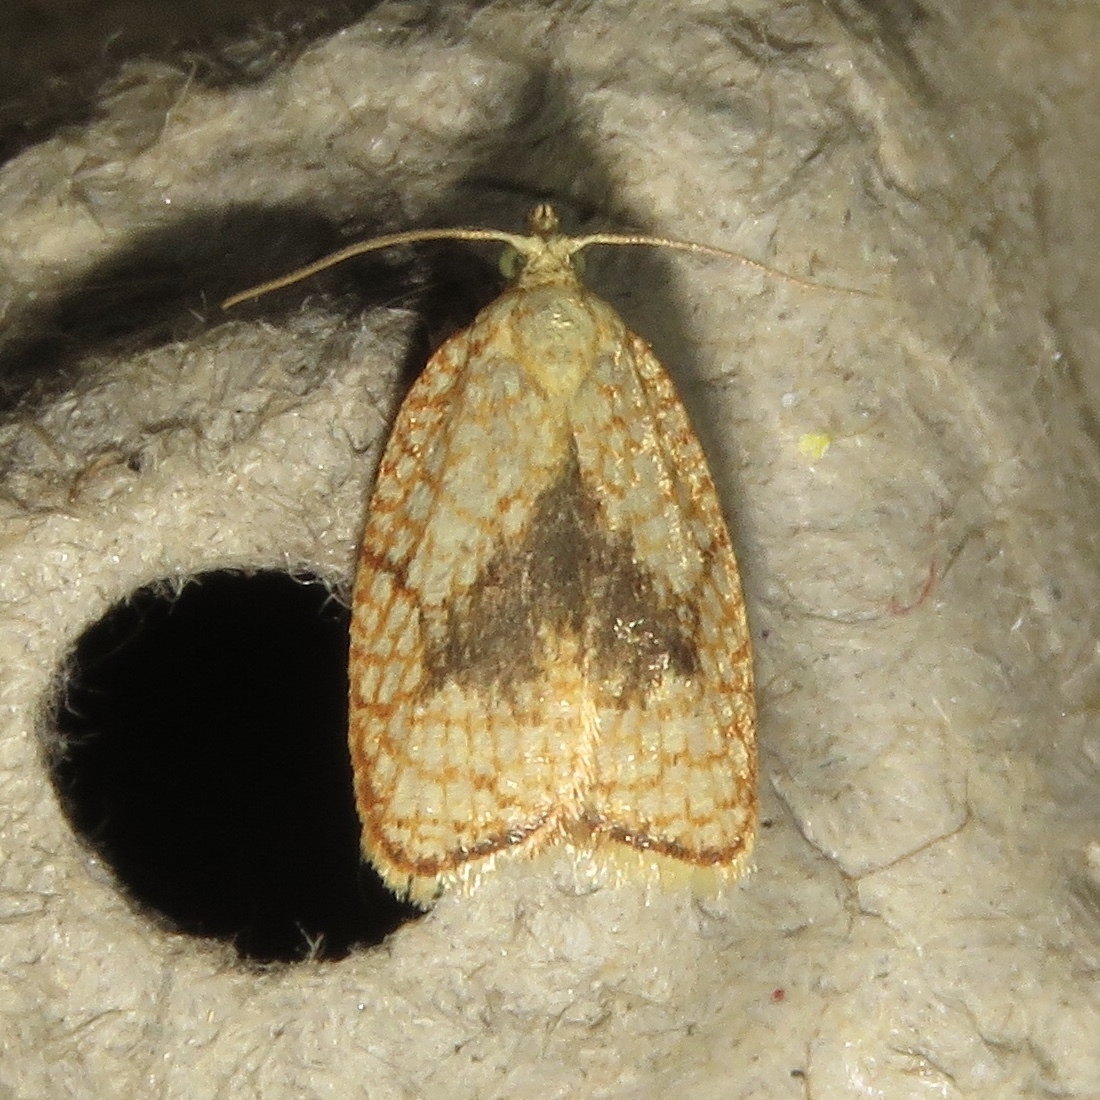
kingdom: Animalia
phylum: Arthropoda
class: Insecta
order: Lepidoptera
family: Tortricidae
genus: Acleris
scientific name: Acleris forsskaleana
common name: Maple button
